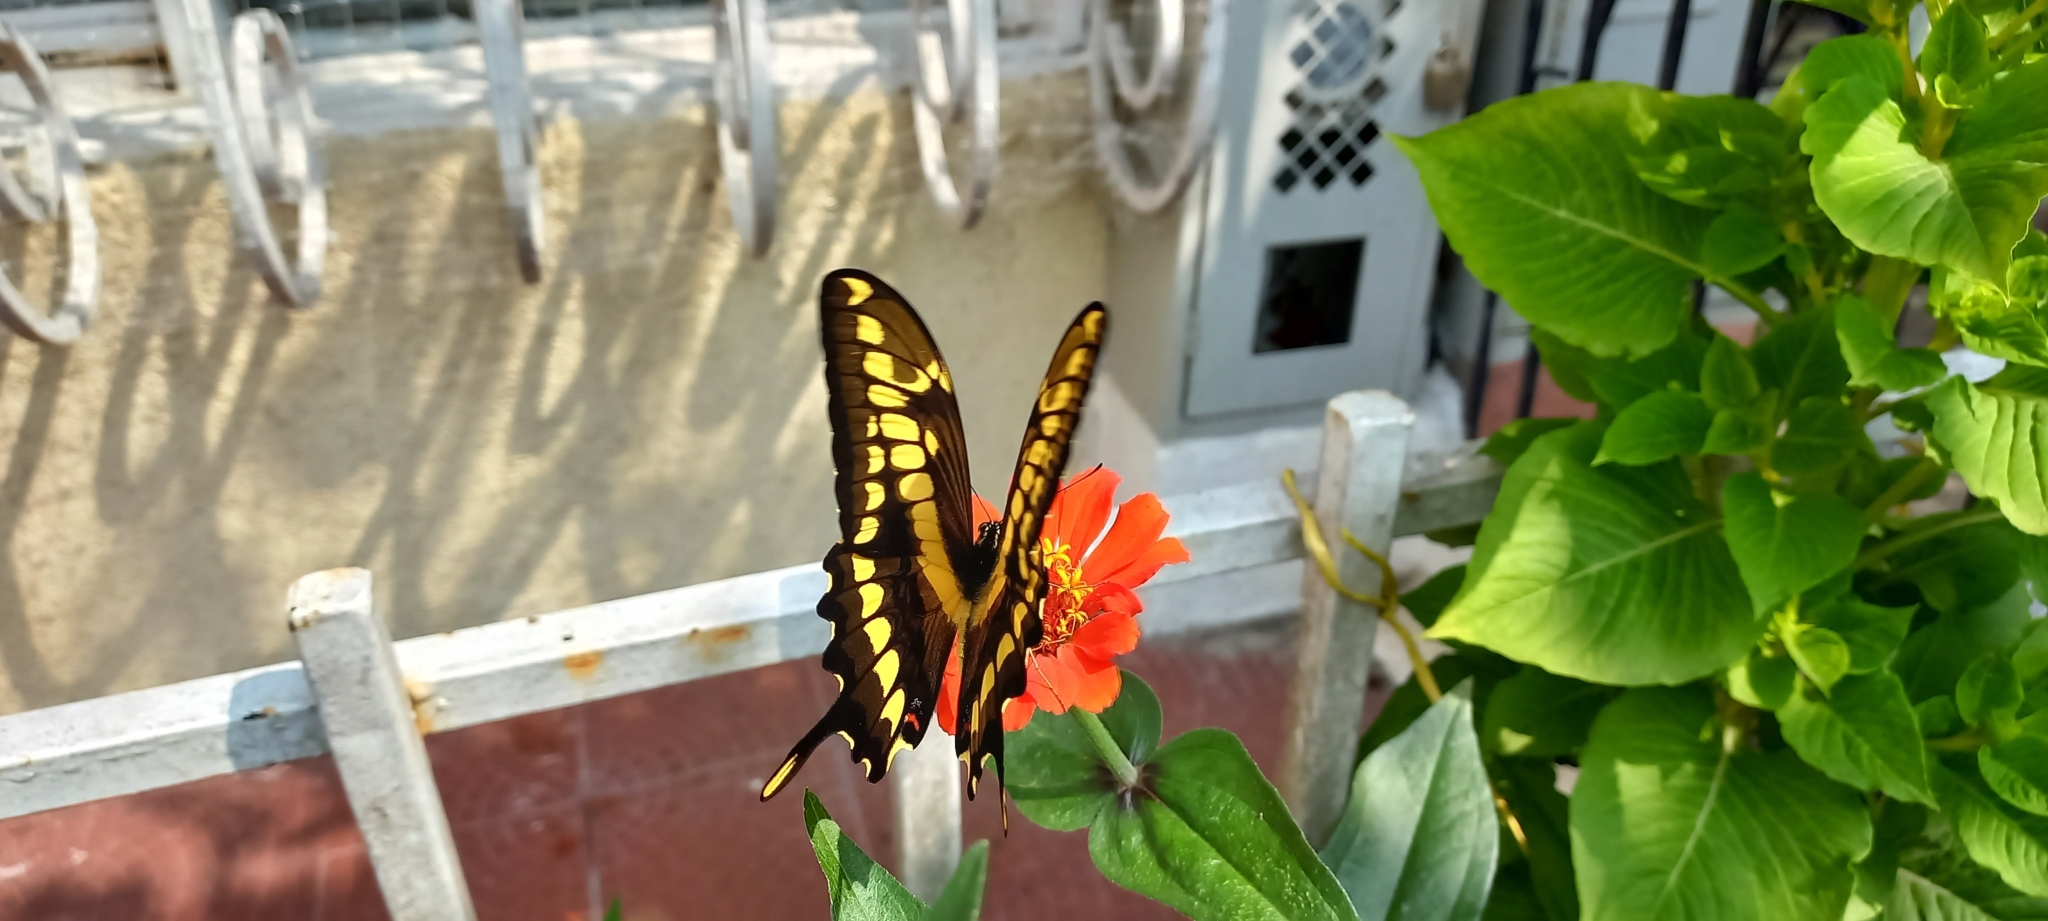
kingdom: Animalia
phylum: Arthropoda
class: Insecta
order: Lepidoptera
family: Papilionidae
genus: Papilio
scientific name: Papilio thoas
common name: King swallowtail
